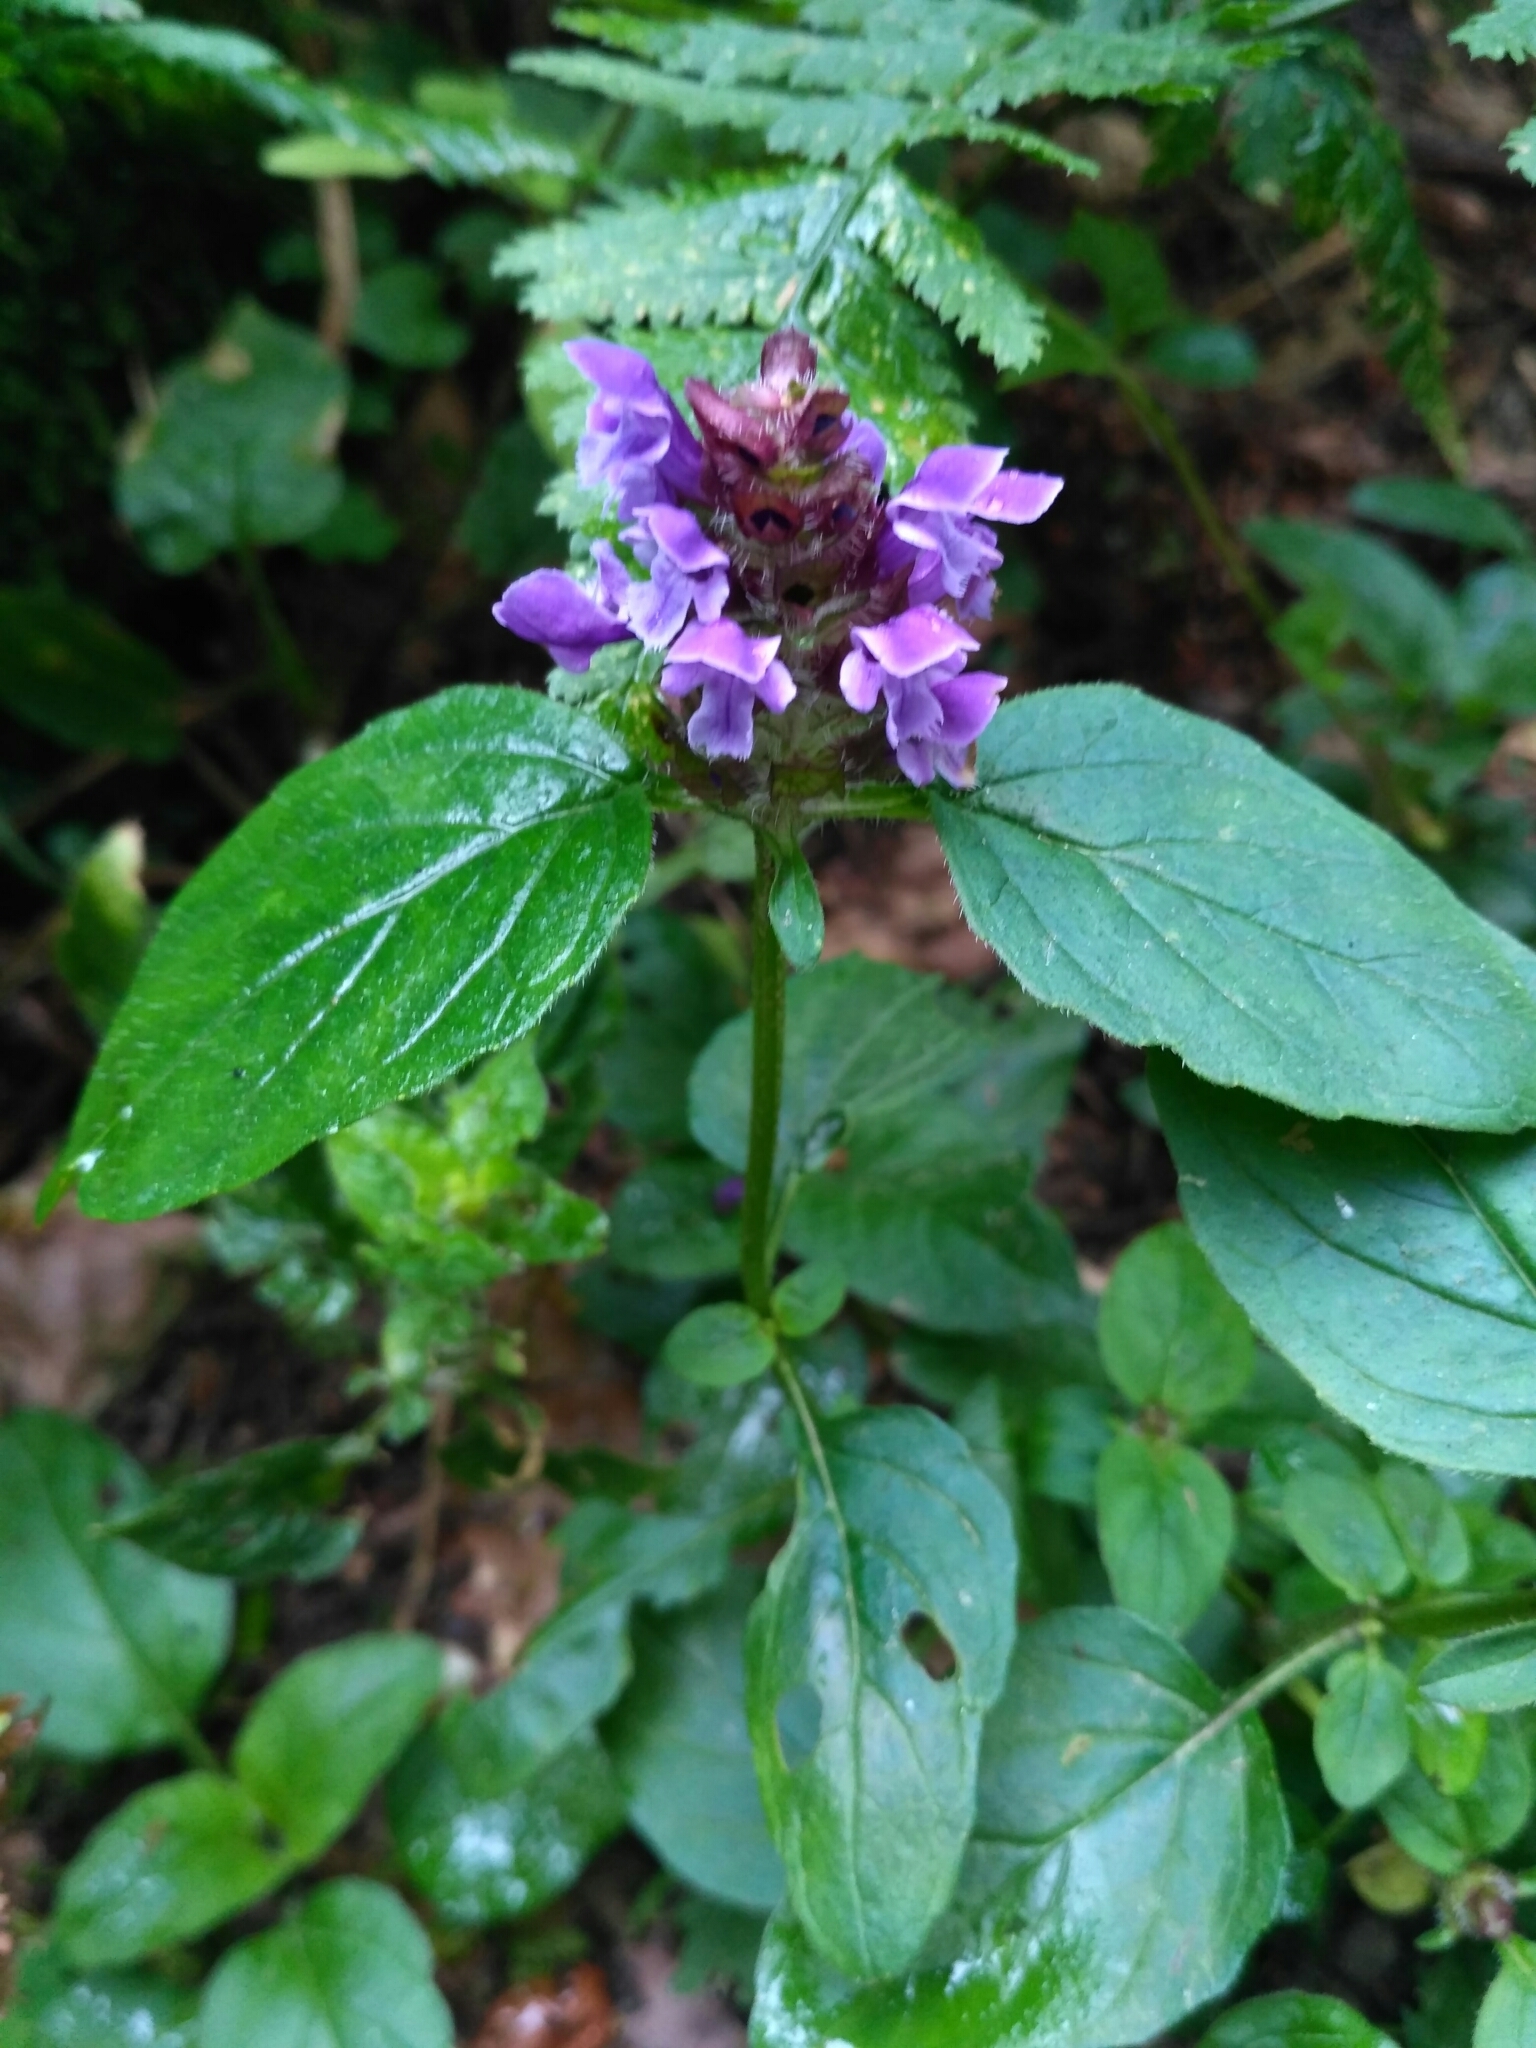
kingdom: Plantae
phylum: Tracheophyta
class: Magnoliopsida
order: Lamiales
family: Lamiaceae
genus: Prunella
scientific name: Prunella vulgaris
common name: Heal-all
